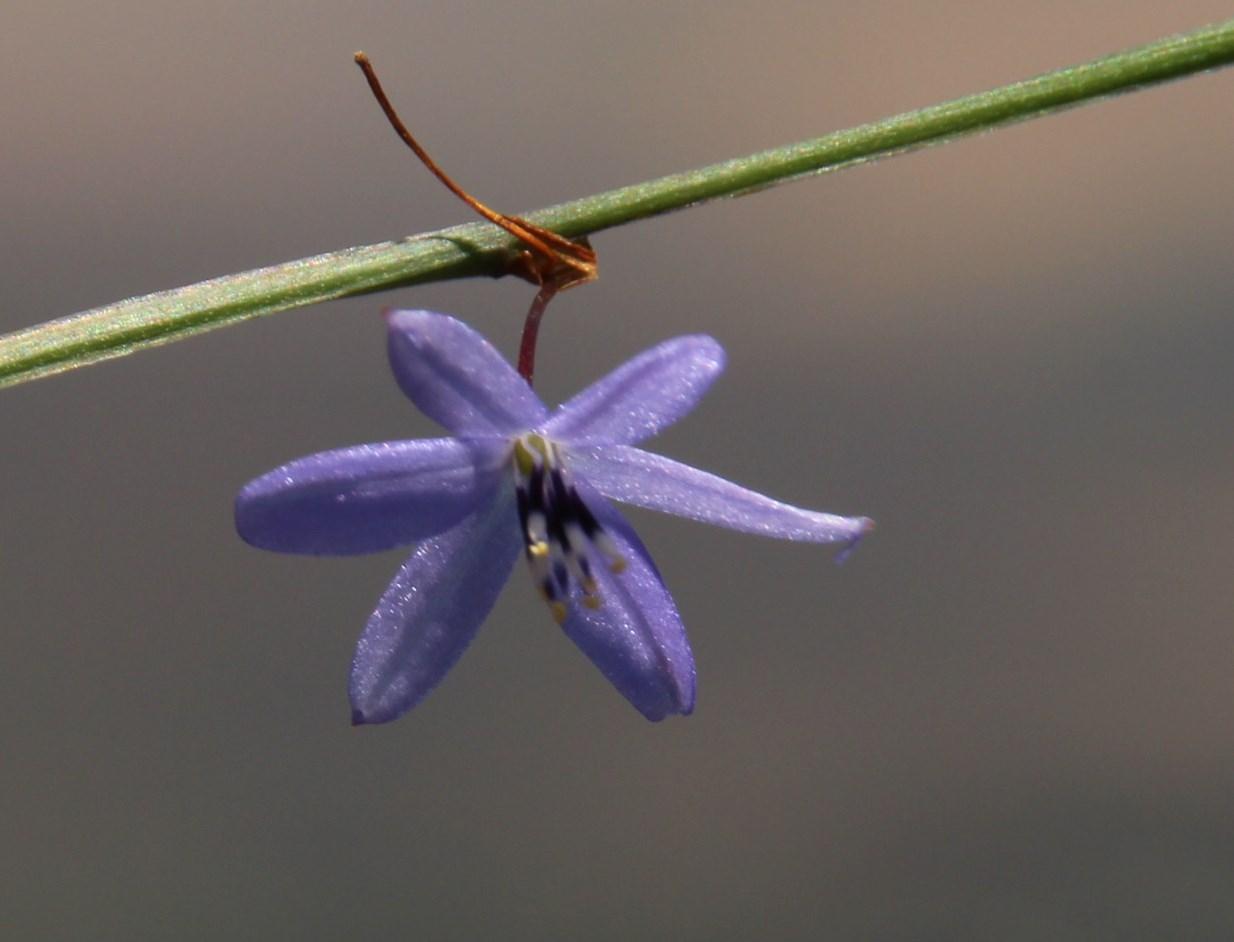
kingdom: Plantae
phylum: Tracheophyta
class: Liliopsida
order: Asparagales
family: Asphodelaceae
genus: Caesia
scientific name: Caesia contorta
